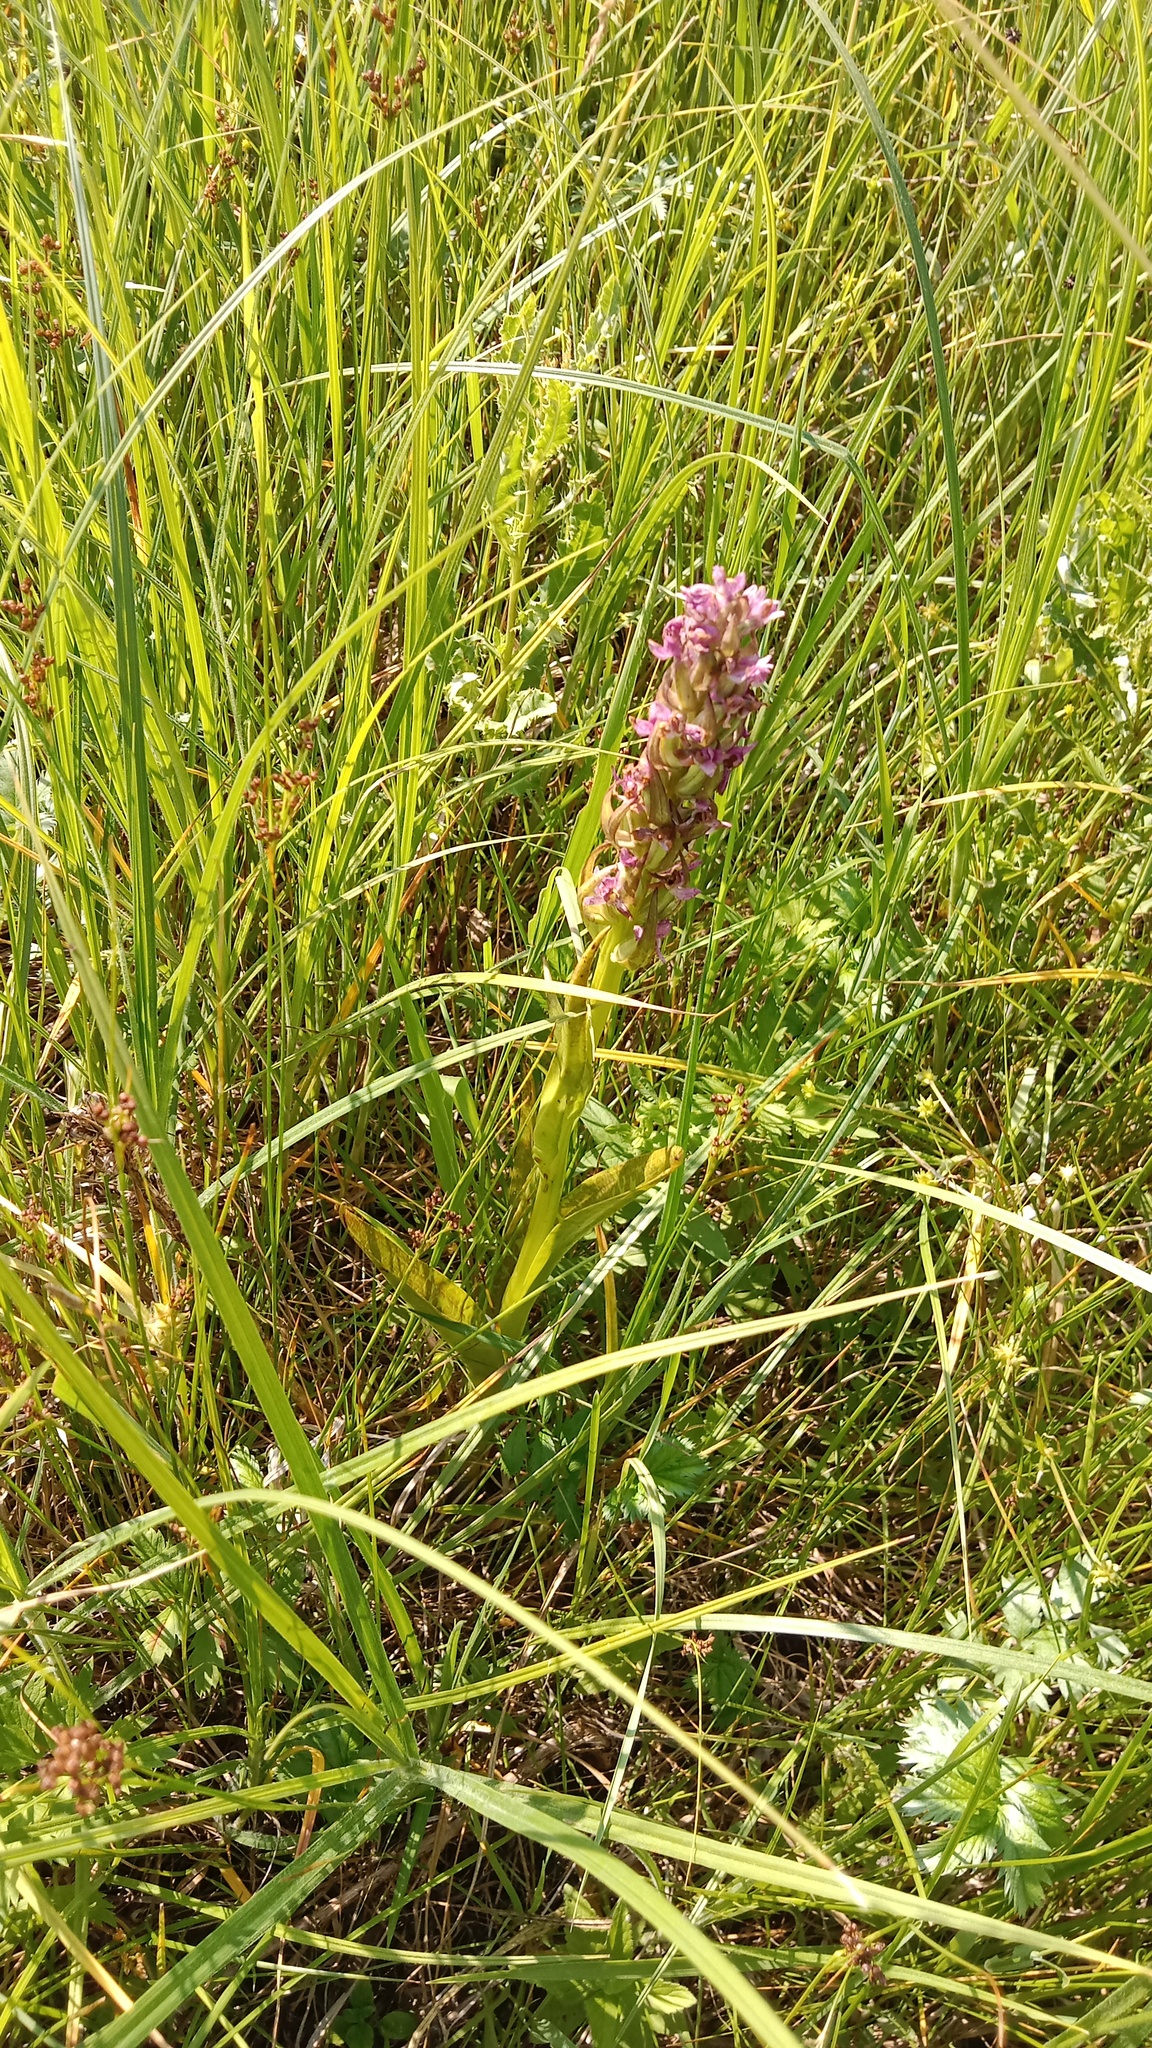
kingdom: Plantae
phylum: Tracheophyta
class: Liliopsida
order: Asparagales
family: Orchidaceae
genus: Dactylorhiza
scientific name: Dactylorhiza incarnata
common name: Early marsh-orchid
